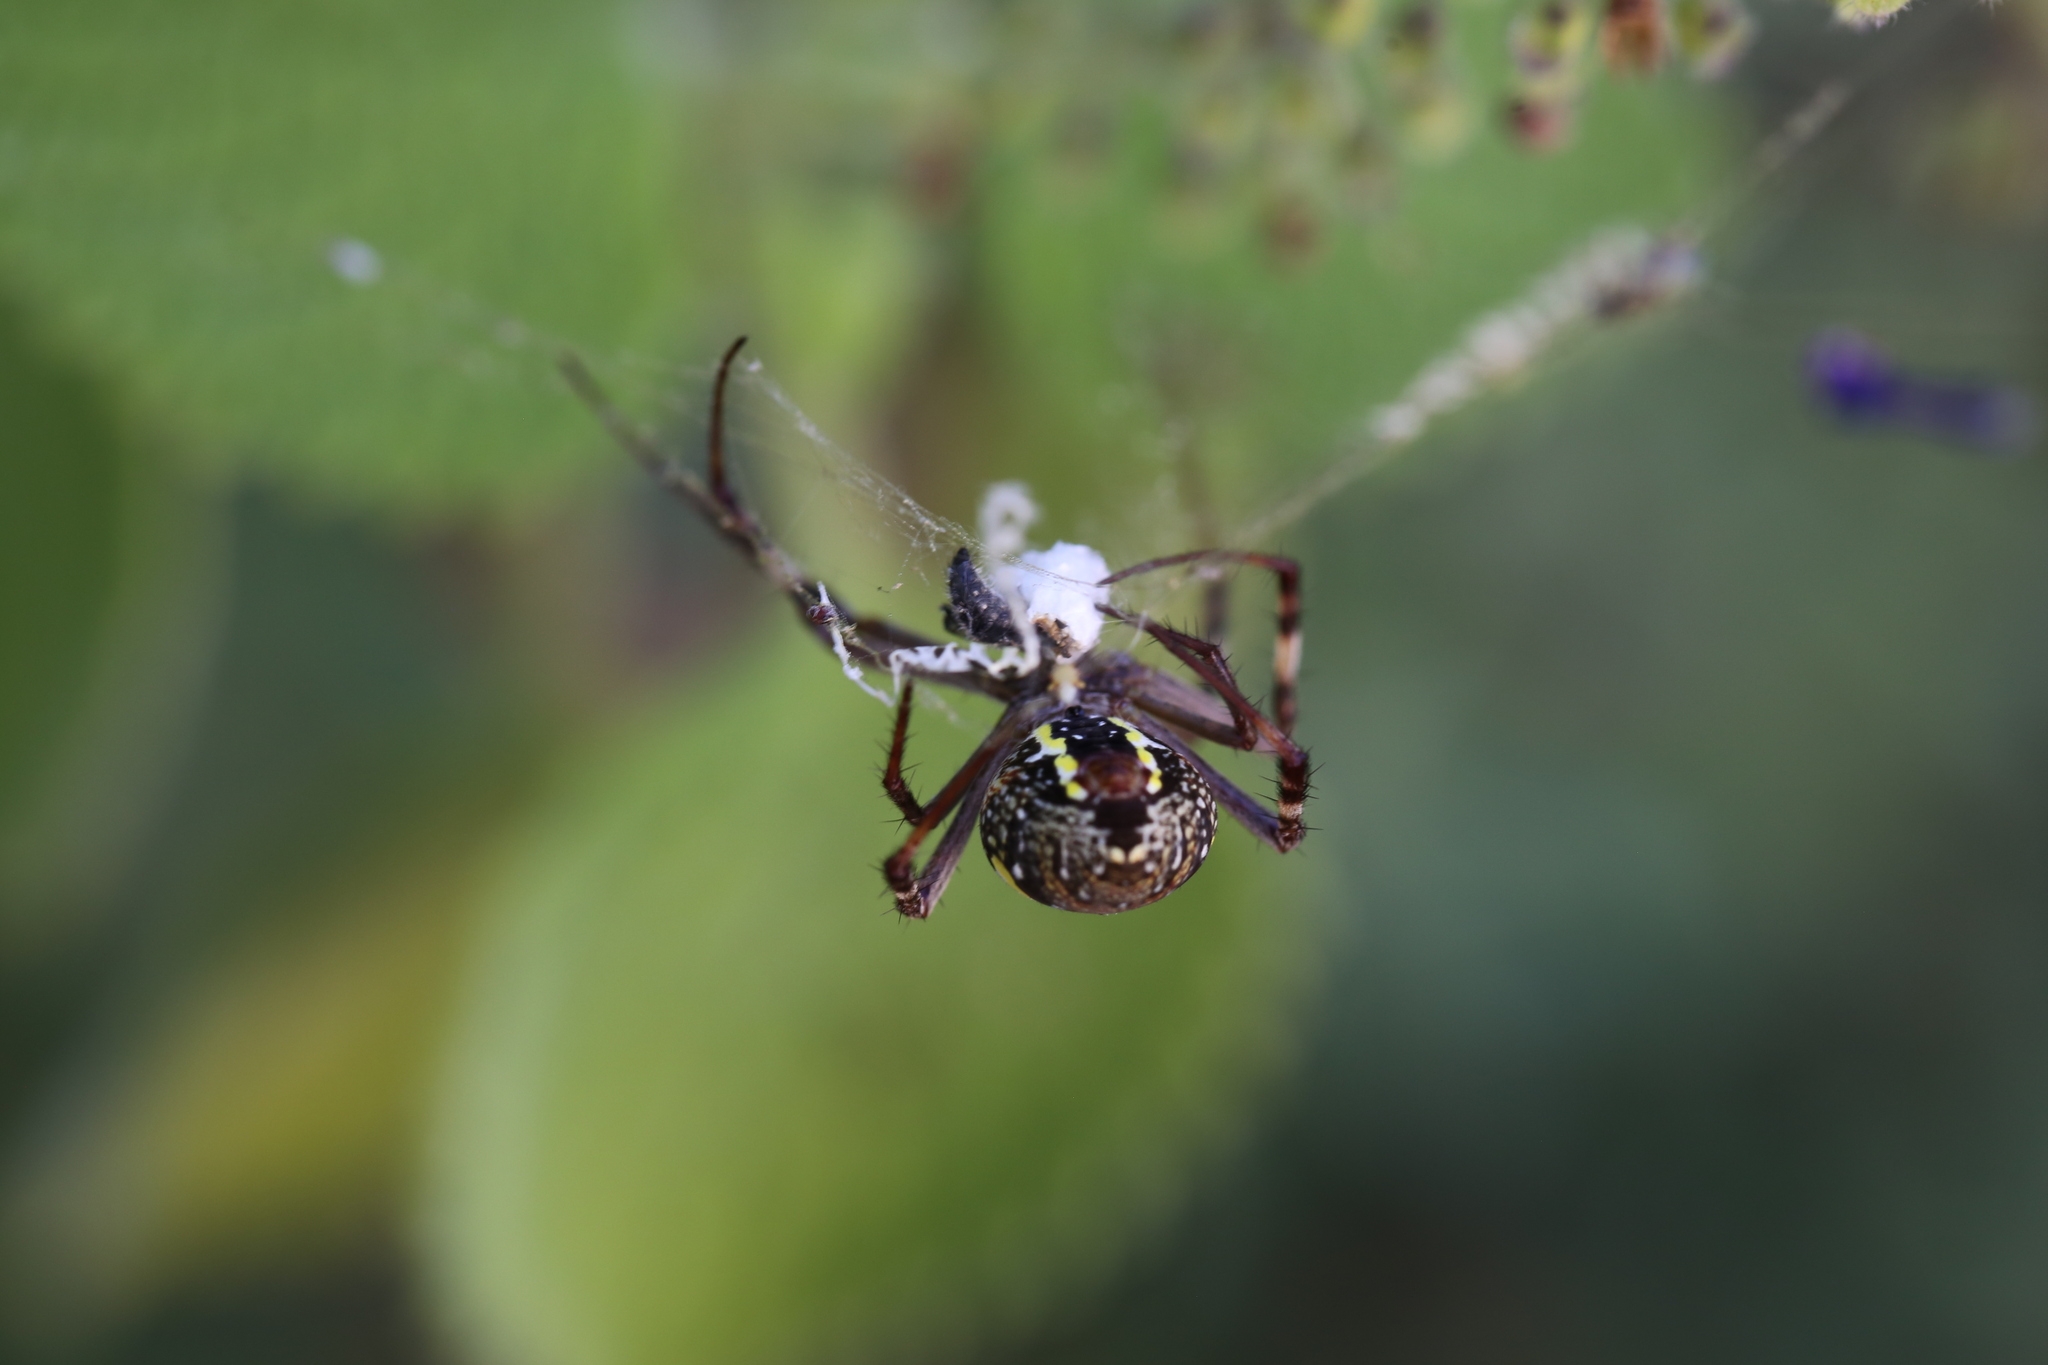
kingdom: Animalia
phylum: Arthropoda
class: Arachnida
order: Araneae
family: Araneidae
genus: Argiope
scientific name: Argiope keyserlingi
